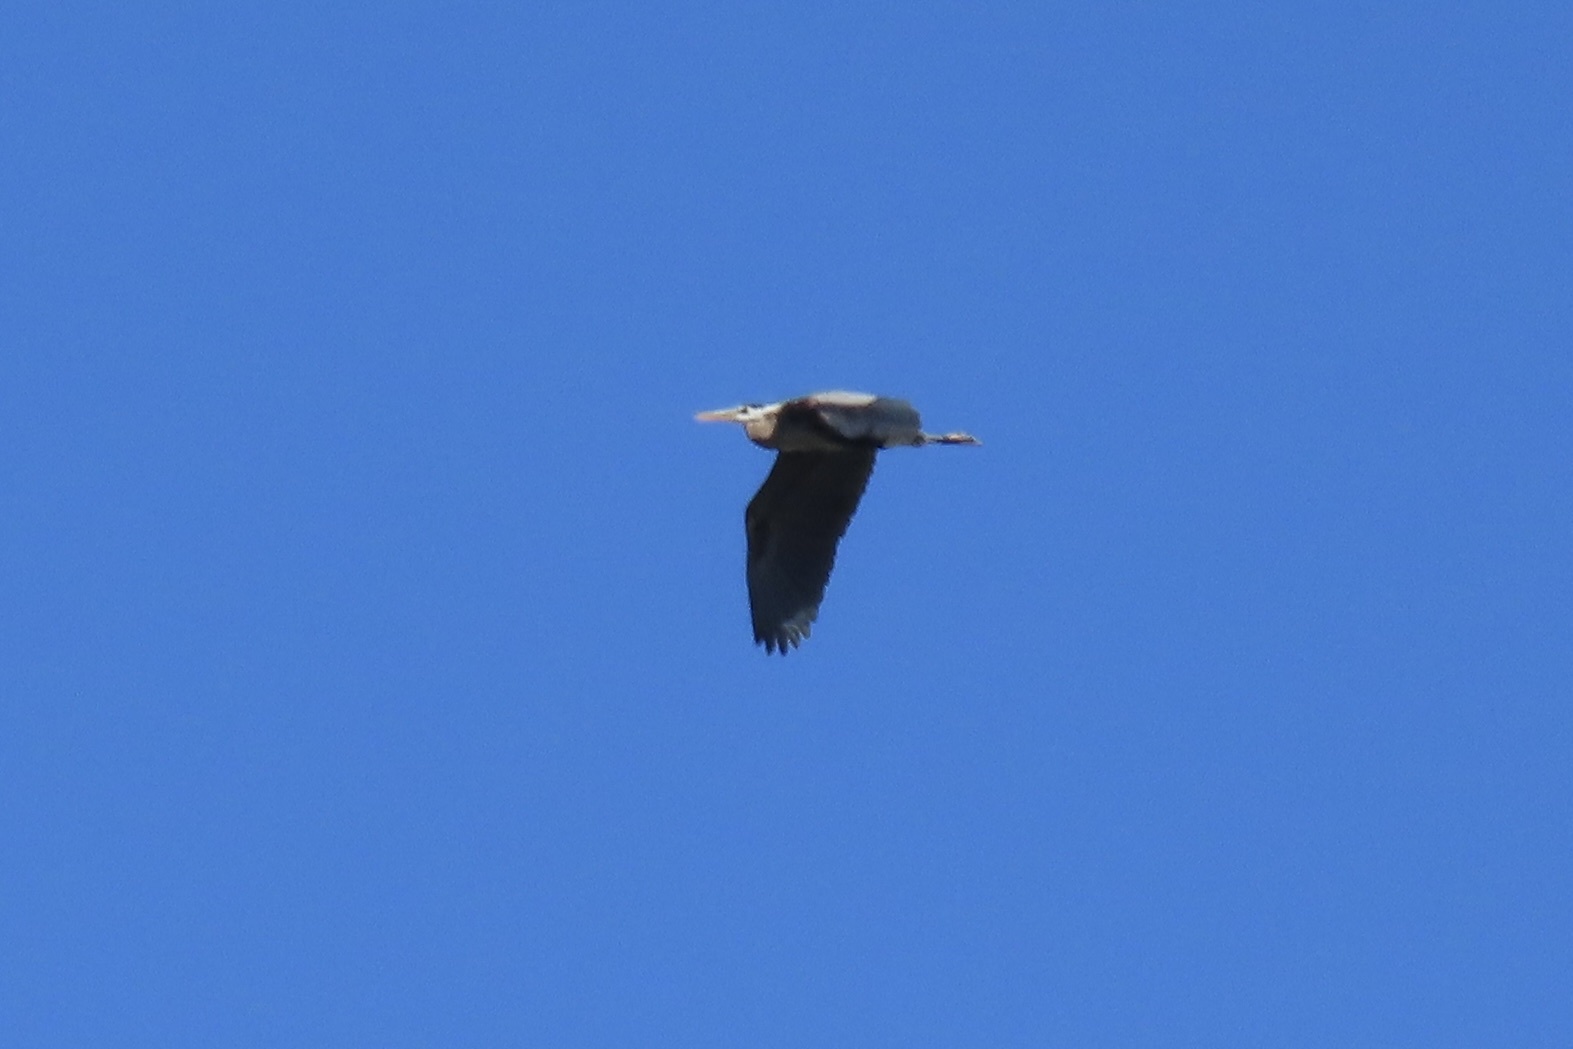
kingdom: Animalia
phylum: Chordata
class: Aves
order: Pelecaniformes
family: Ardeidae
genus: Ardea
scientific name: Ardea herodias
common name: Great blue heron
